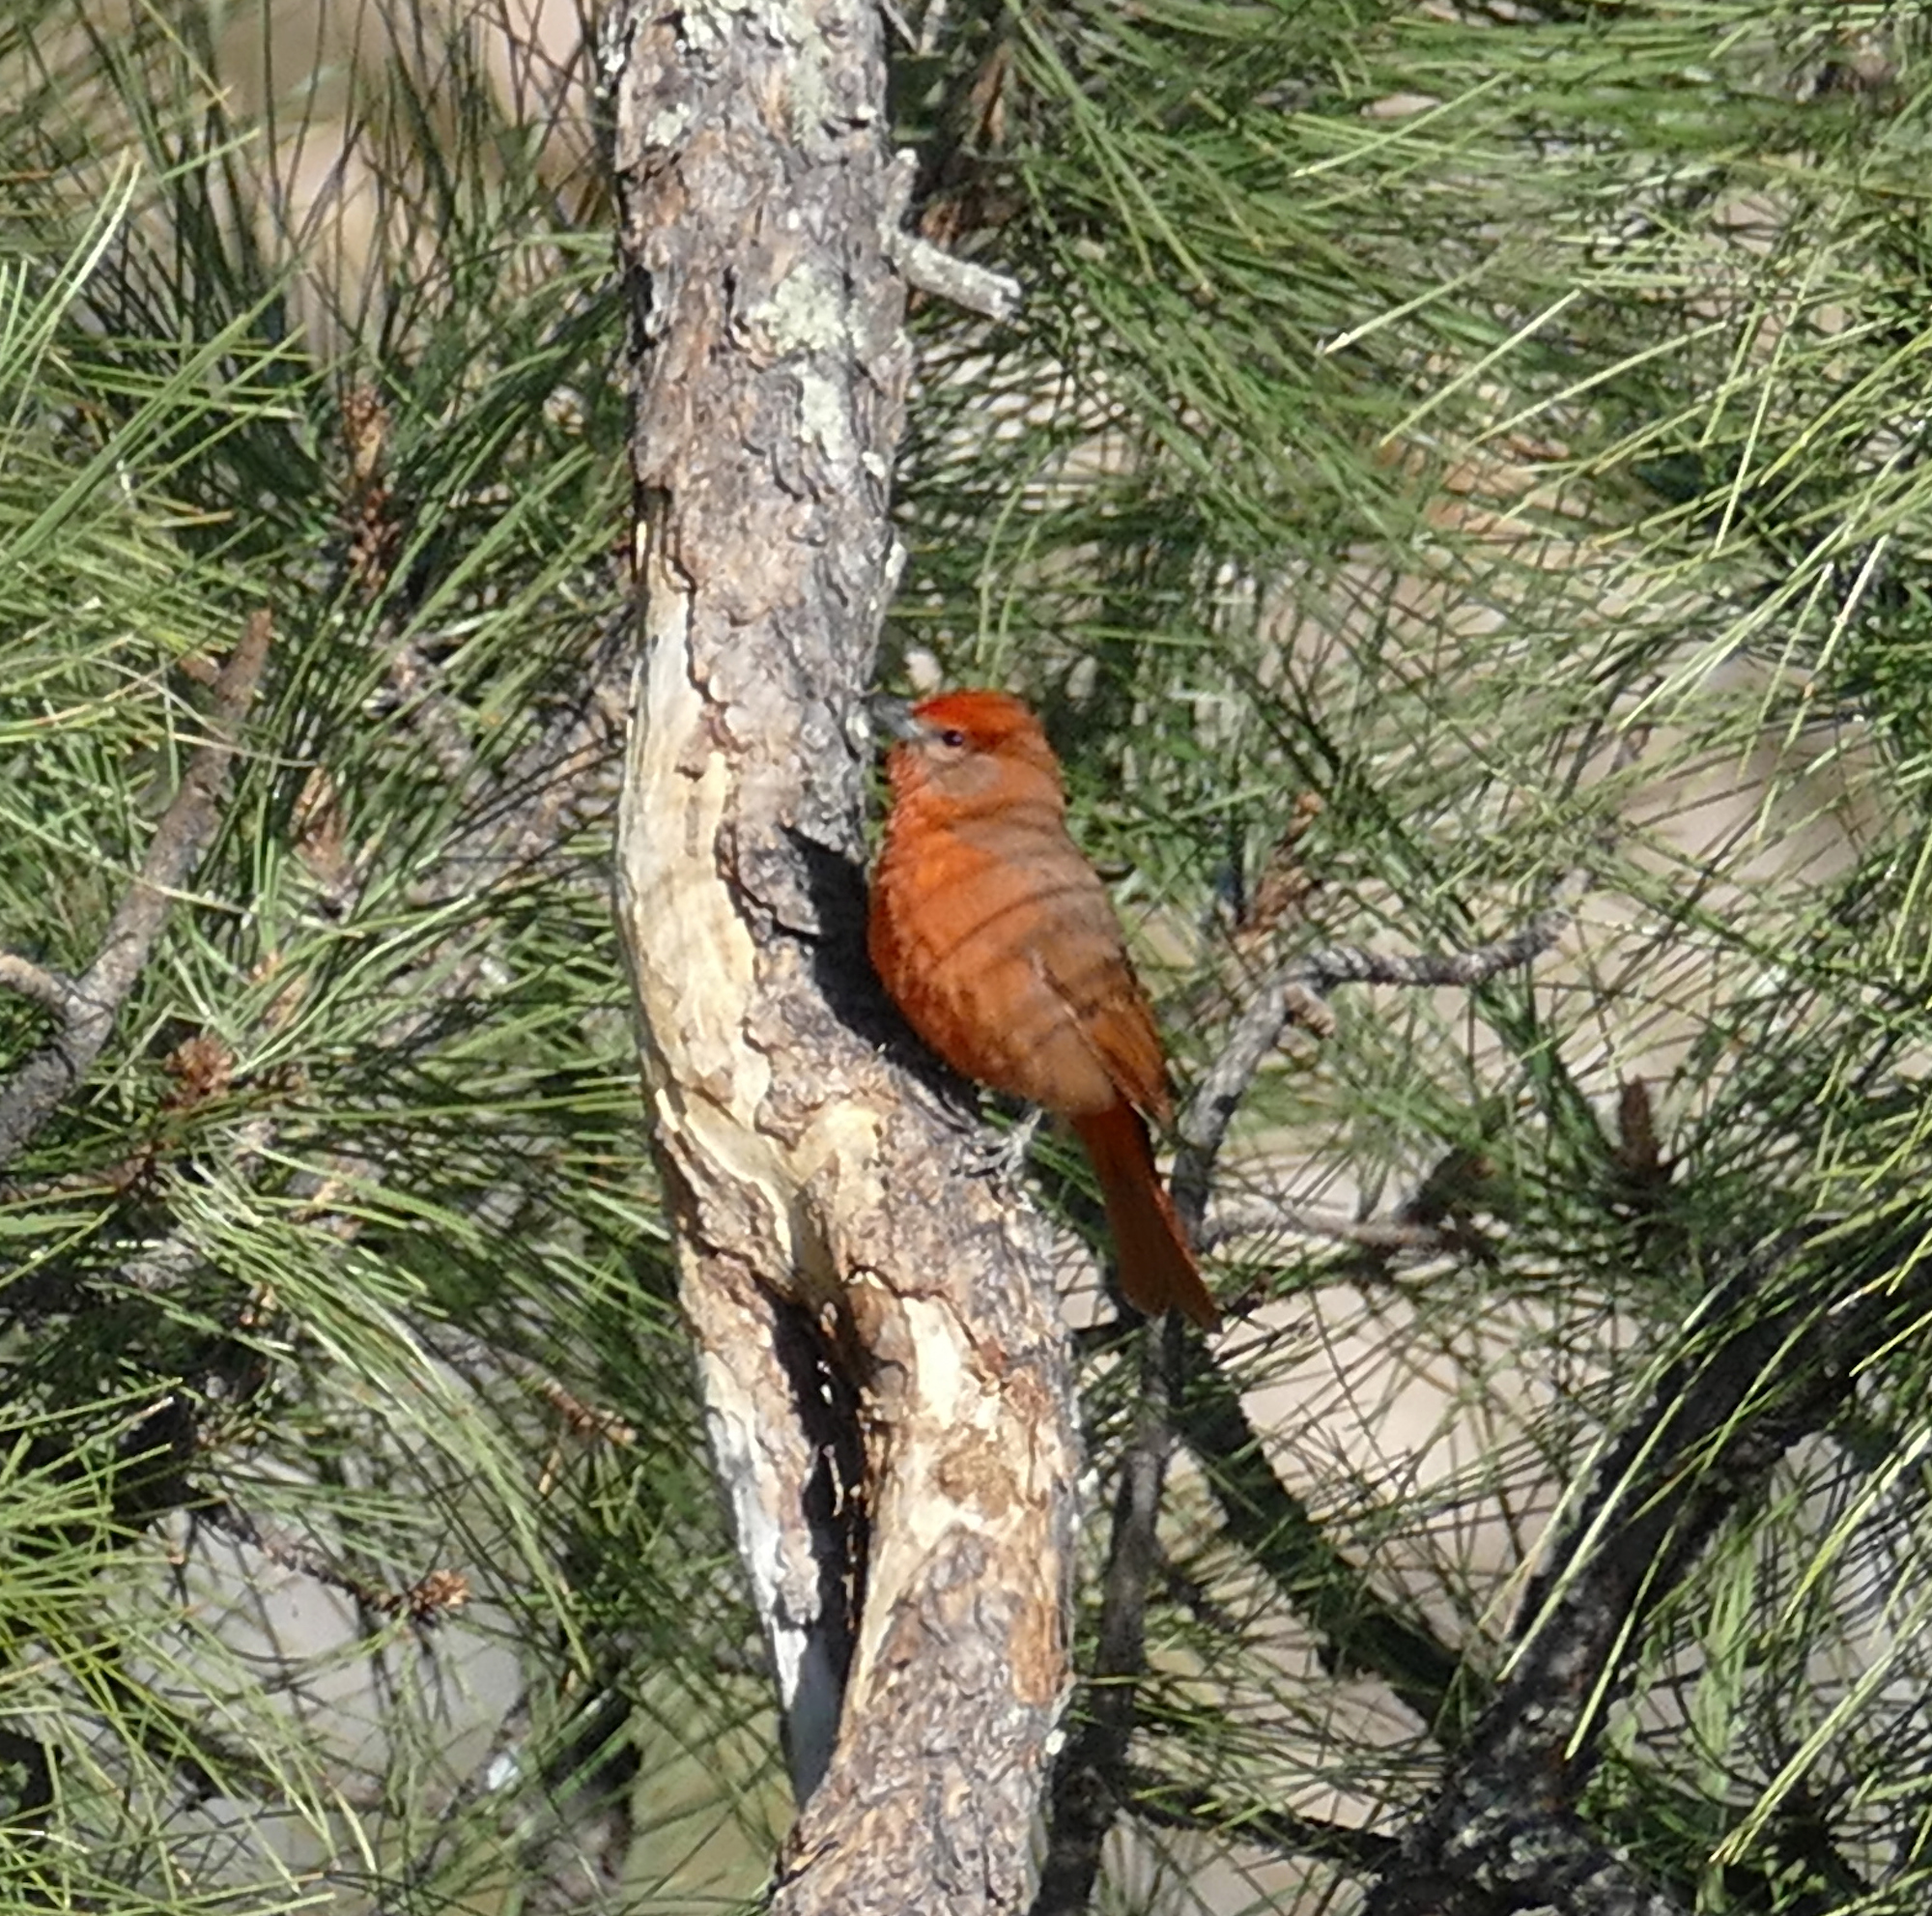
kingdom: Animalia
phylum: Chordata
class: Aves
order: Passeriformes
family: Cardinalidae
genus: Piranga
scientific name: Piranga flava
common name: Red tanager
